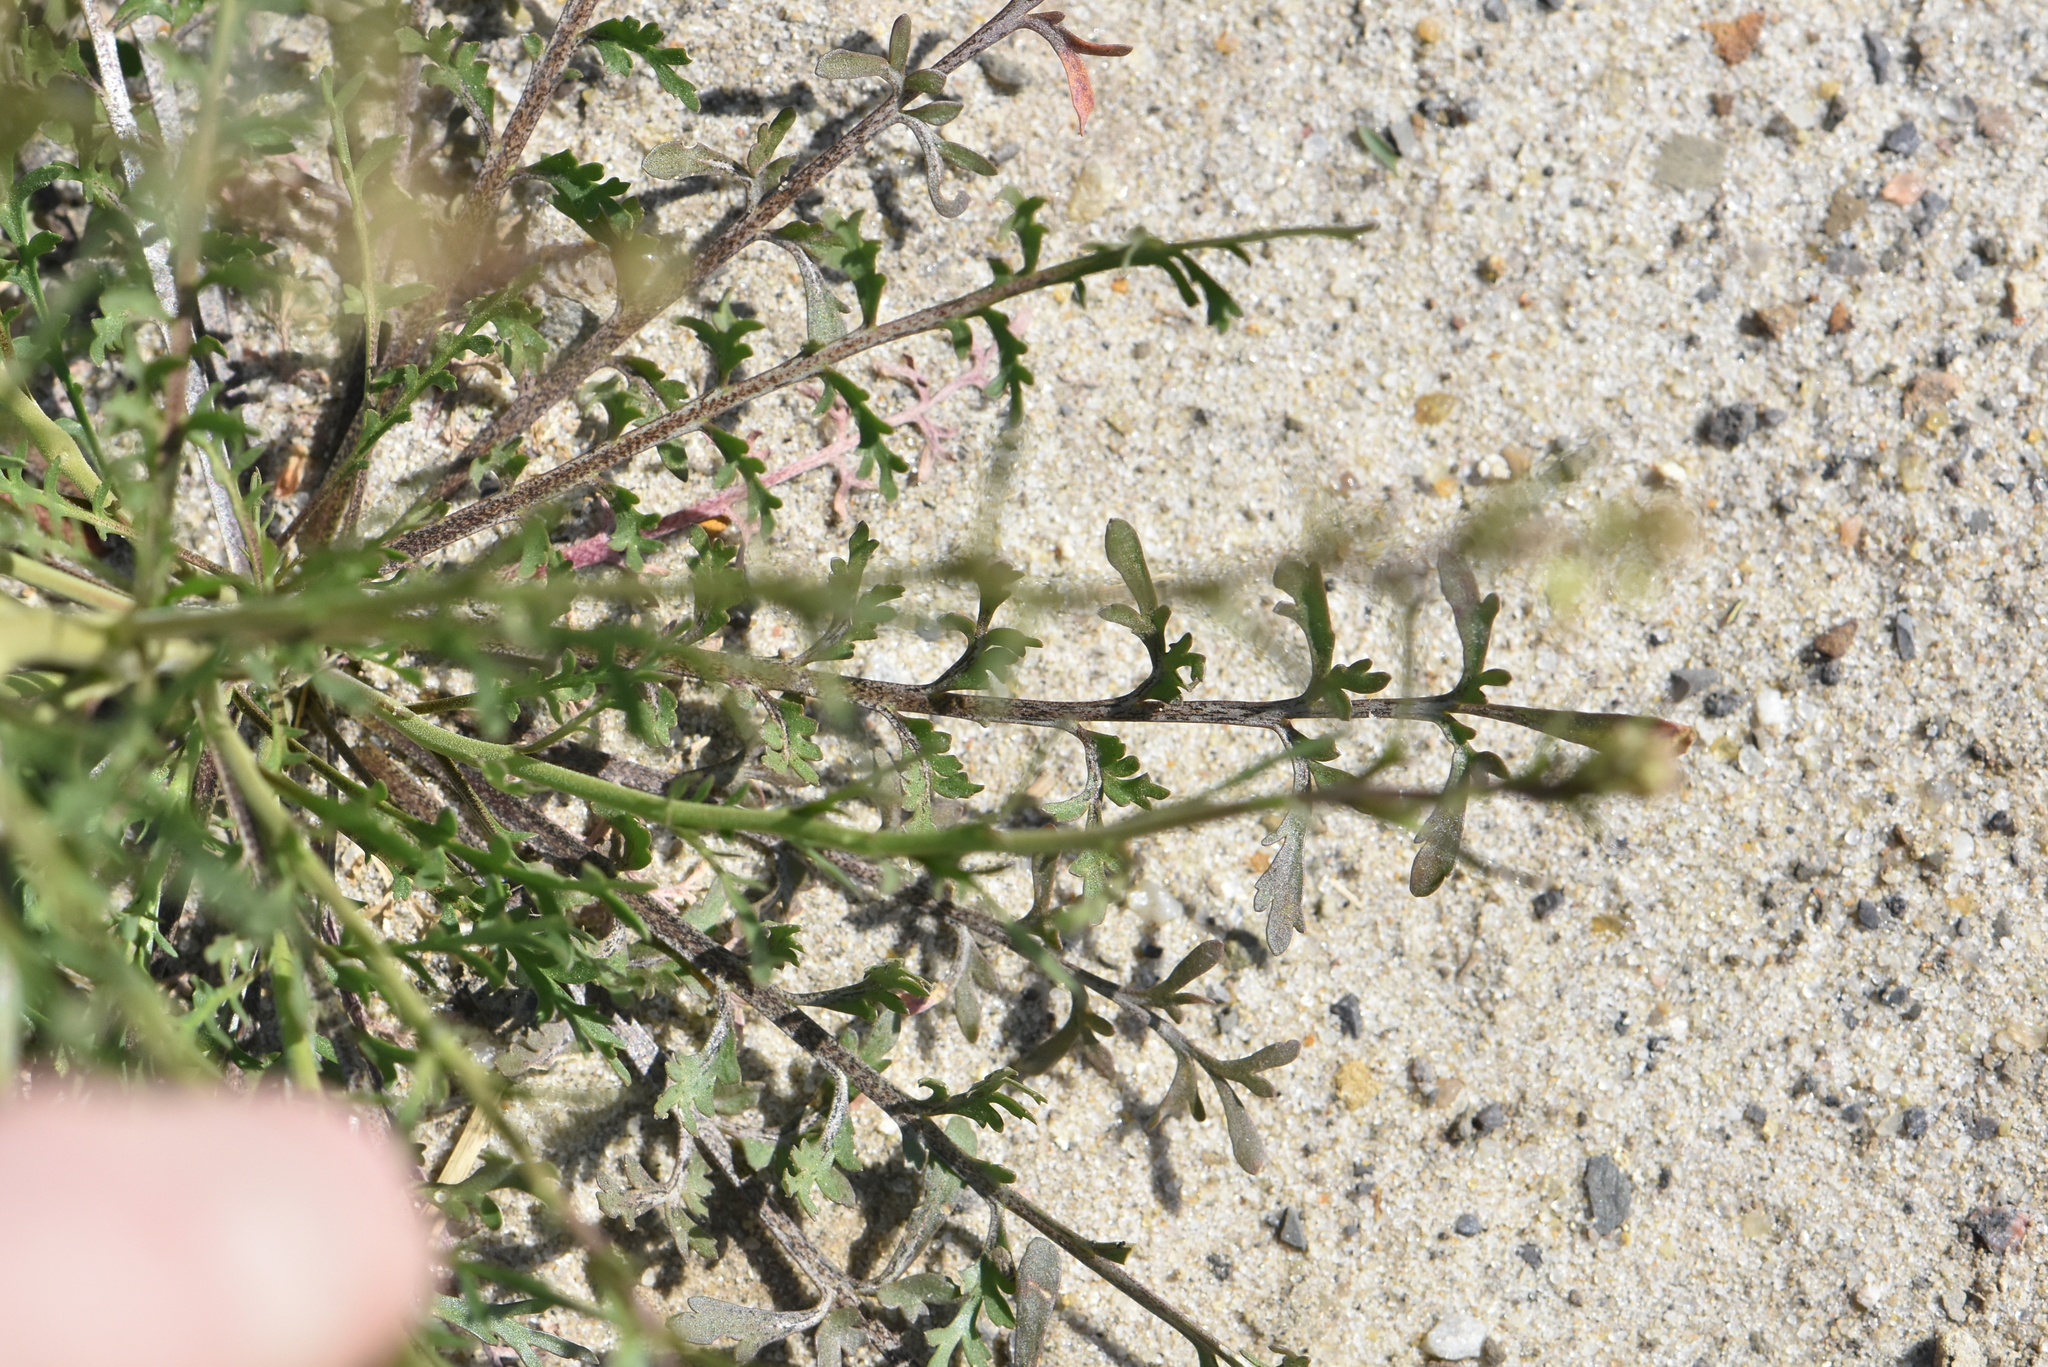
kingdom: Plantae
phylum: Tracheophyta
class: Magnoliopsida
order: Brassicales
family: Brassicaceae
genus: Lepidium
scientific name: Lepidium ruderale
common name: Narrow-leaved pepperwort
